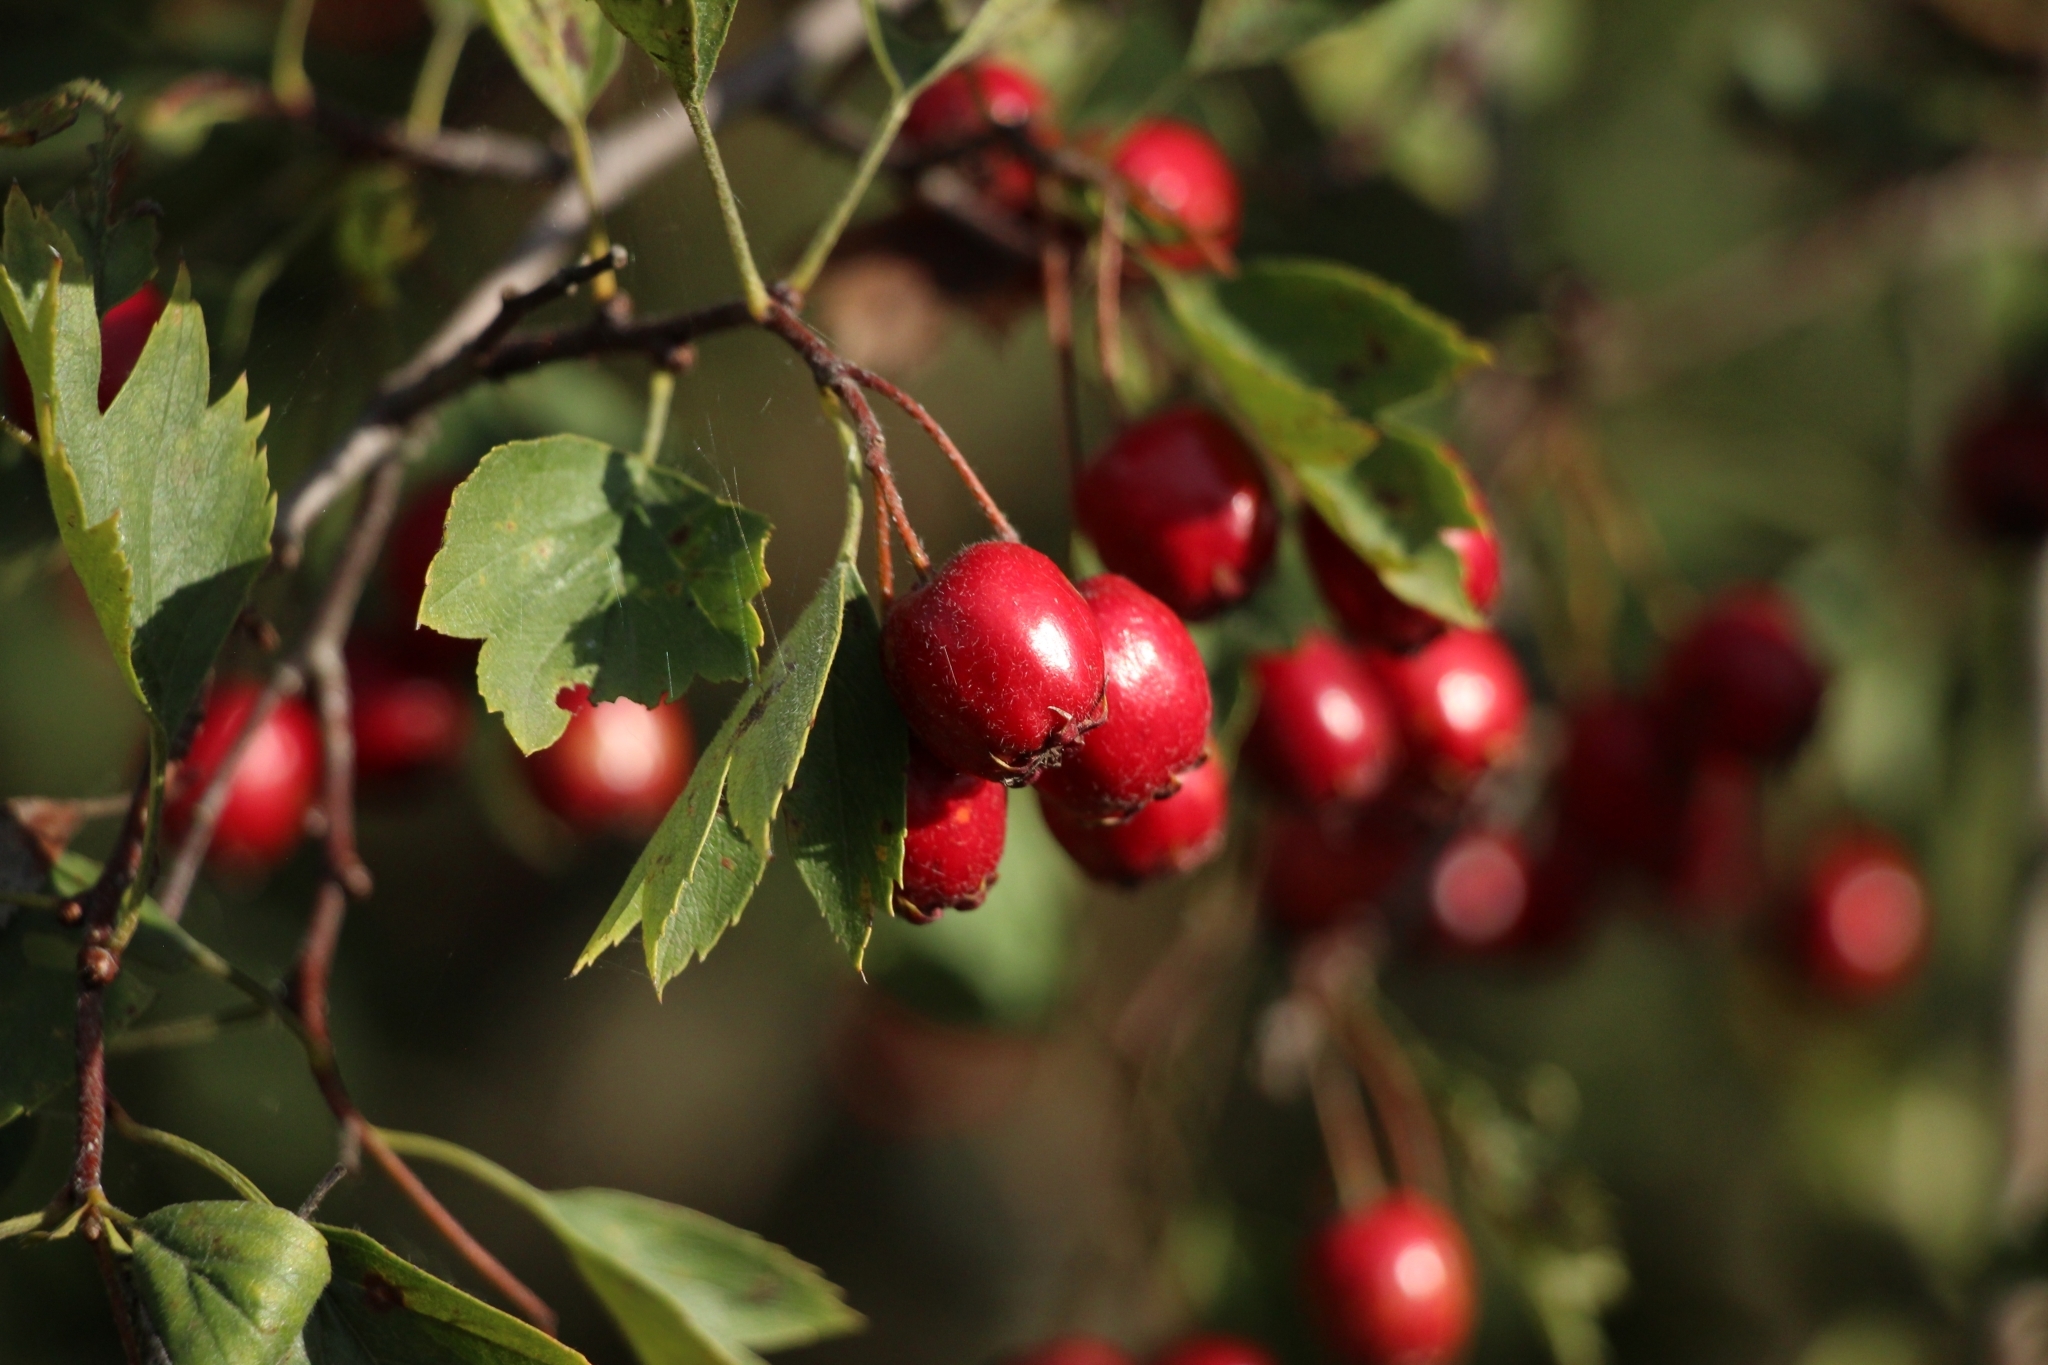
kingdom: Plantae
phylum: Tracheophyta
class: Magnoliopsida
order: Rosales
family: Rosaceae
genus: Crataegus
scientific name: Crataegus rhipidophylla
